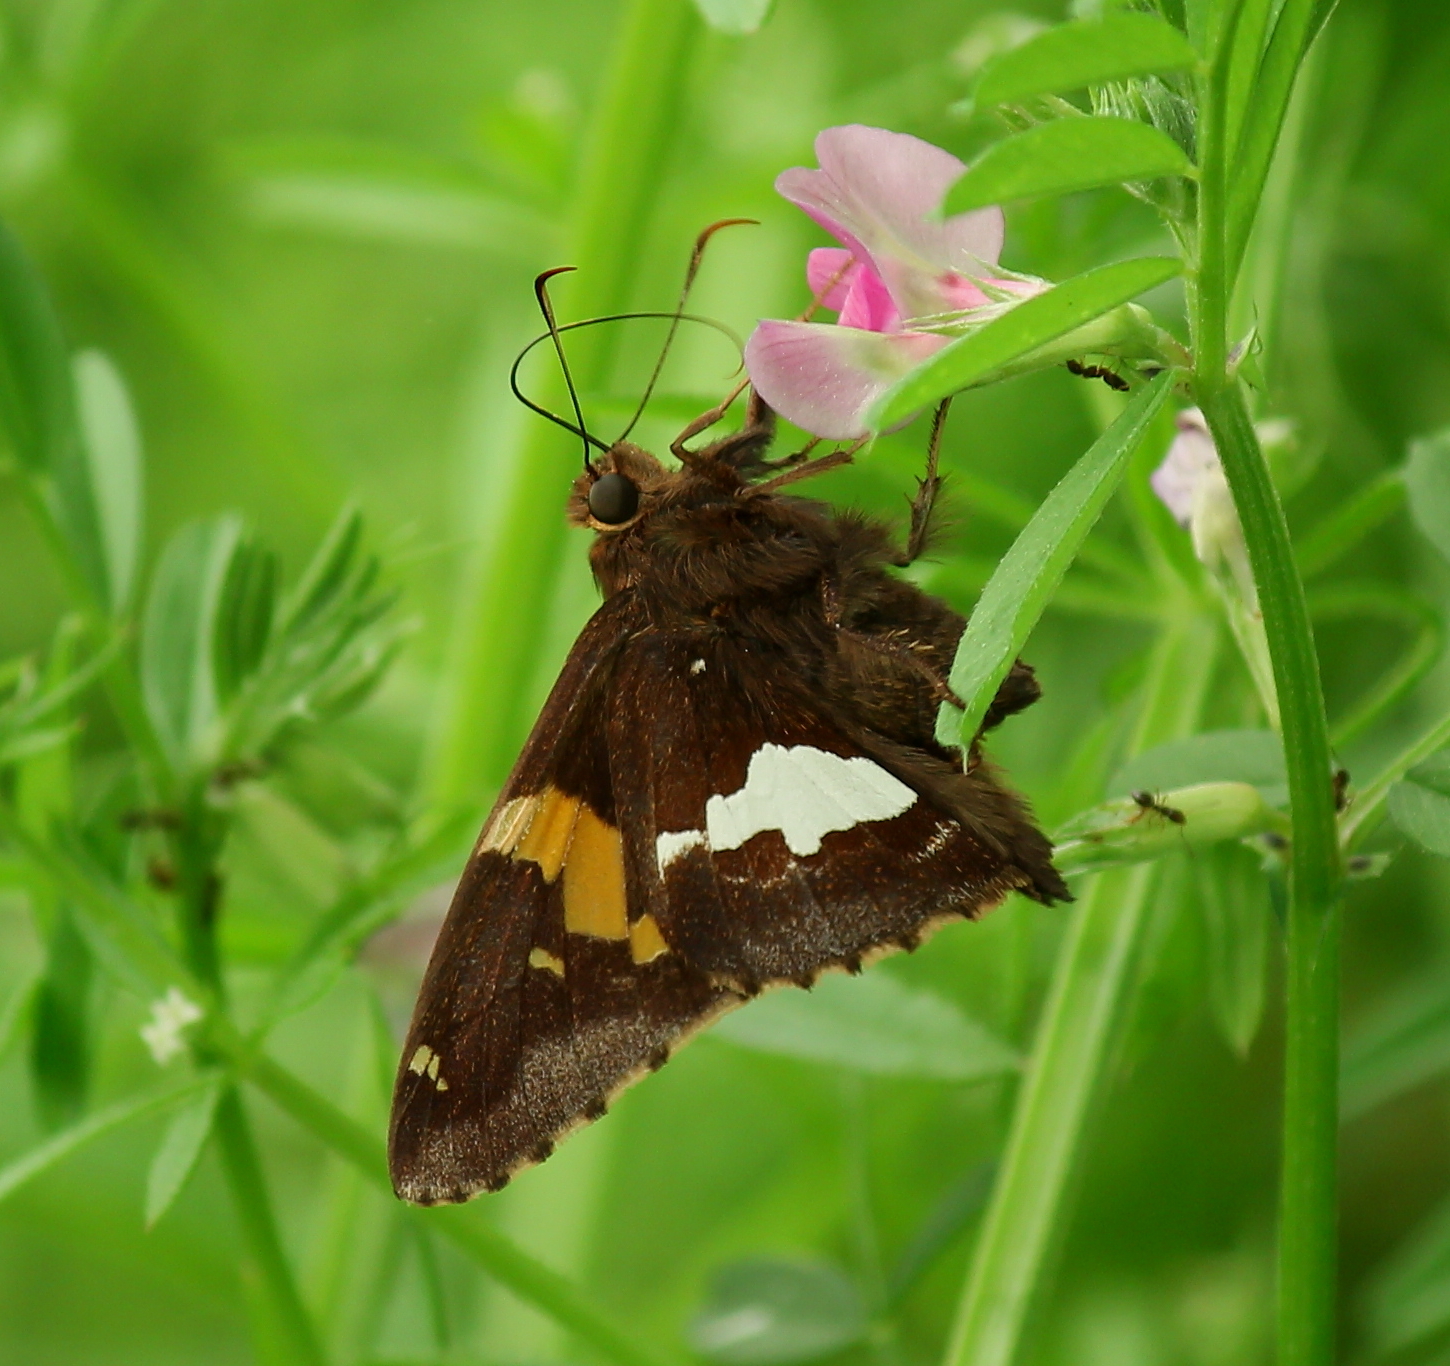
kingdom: Animalia
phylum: Arthropoda
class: Insecta
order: Lepidoptera
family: Hesperiidae
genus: Epargyreus
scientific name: Epargyreus clarus
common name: Silver-spotted skipper
